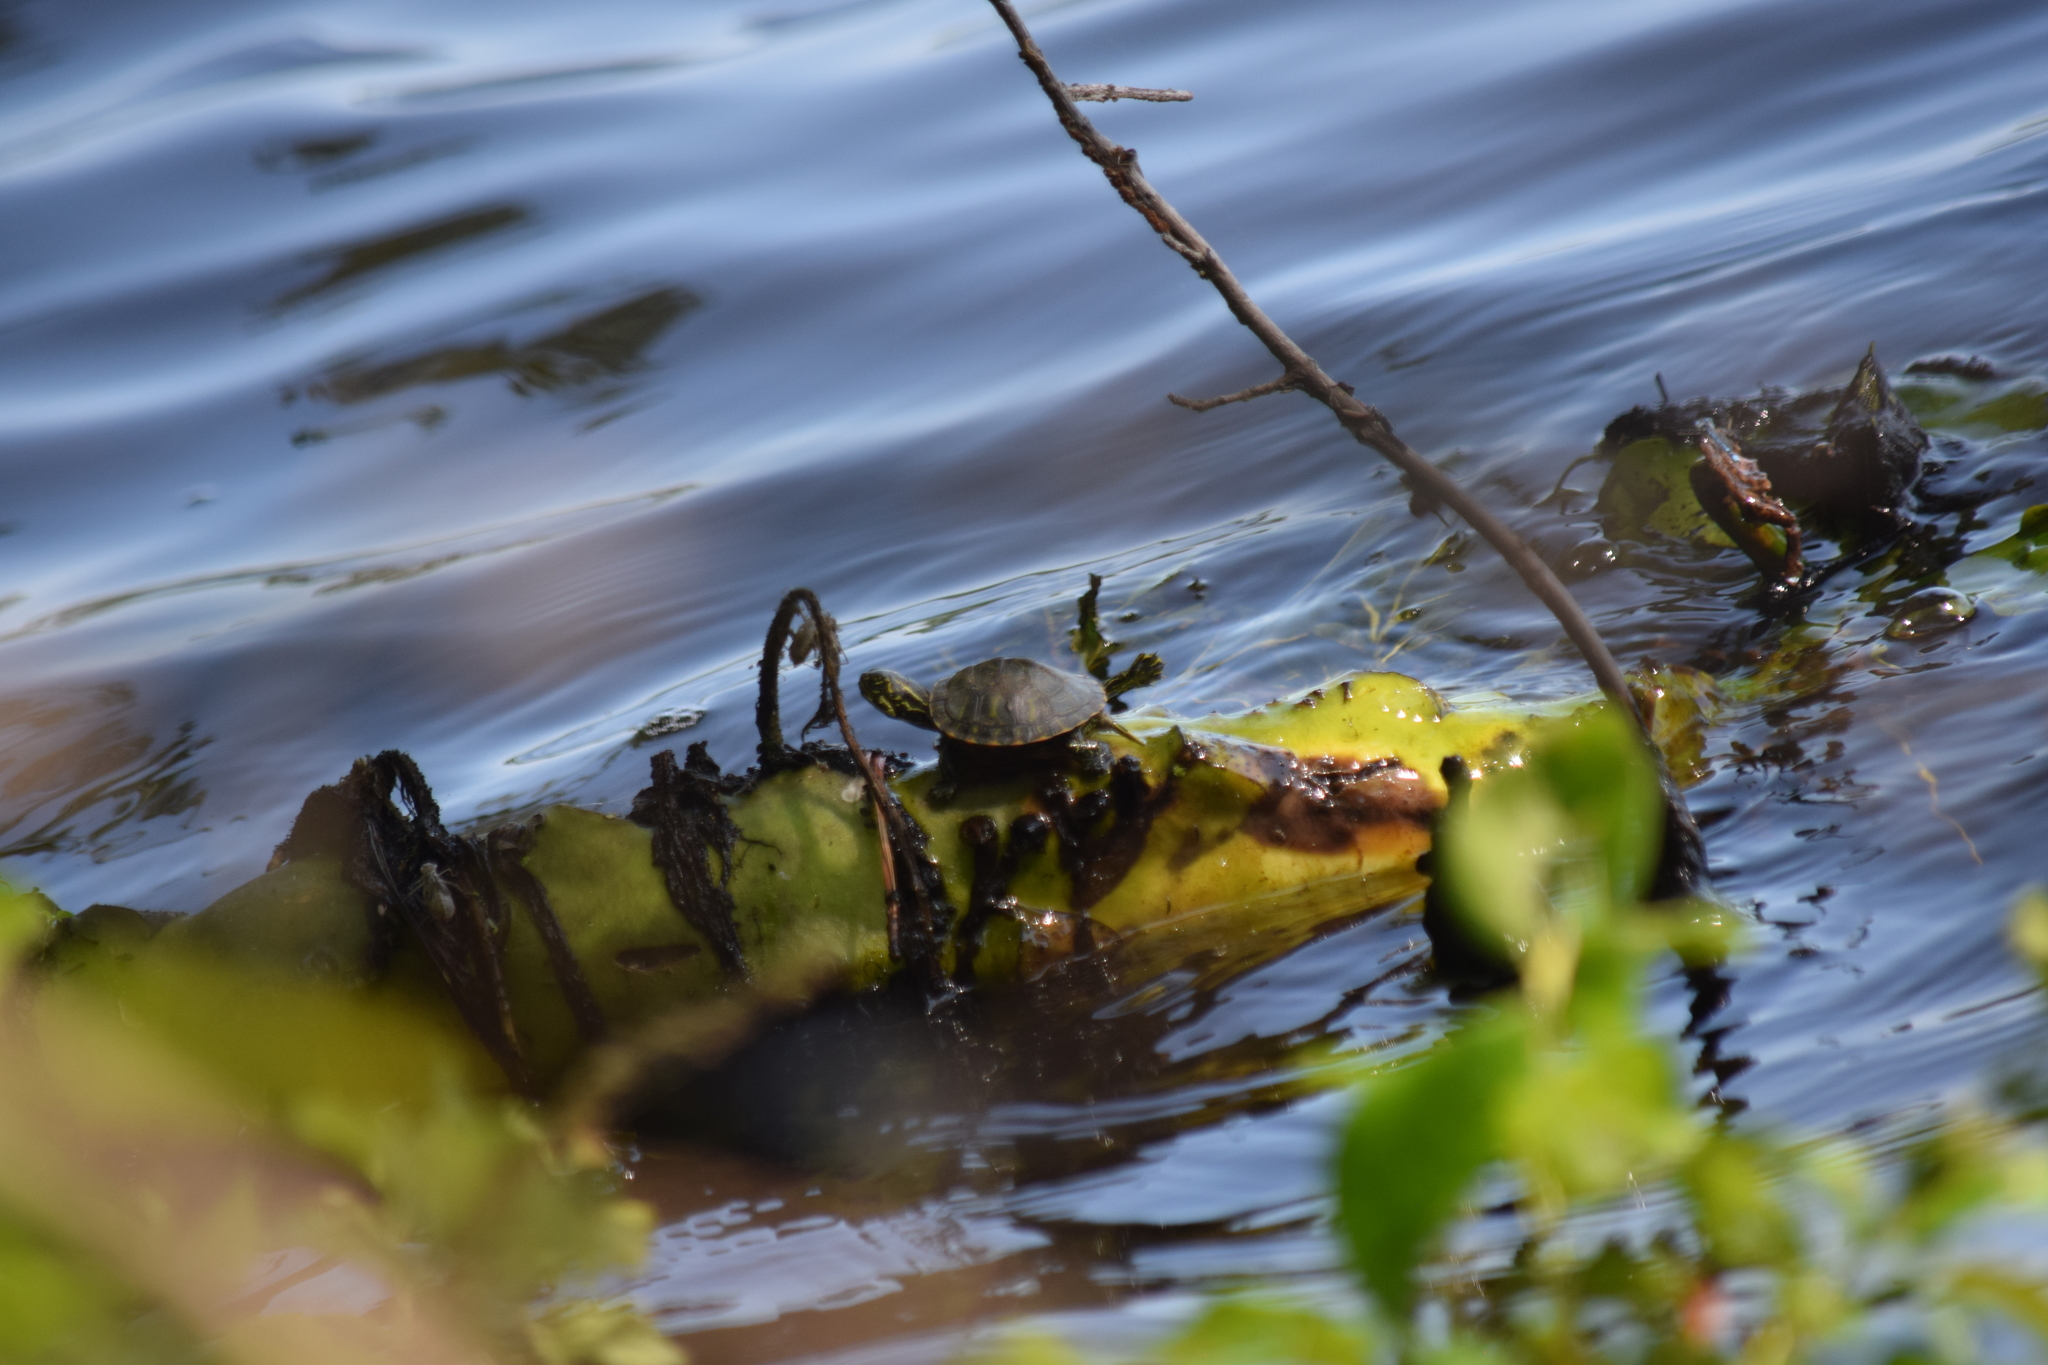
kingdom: Animalia
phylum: Chordata
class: Testudines
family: Emydidae
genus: Pseudemys
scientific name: Pseudemys rubriventris
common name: American red-bellied turtle
